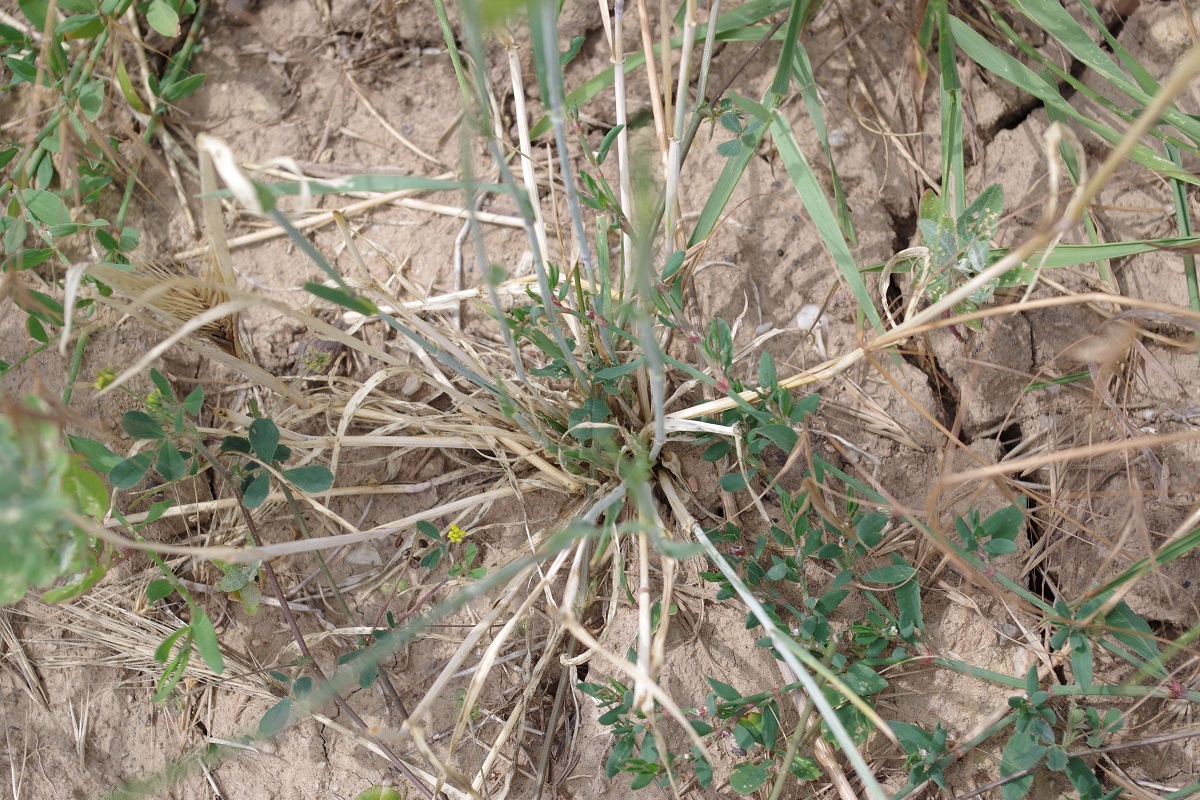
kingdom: Plantae
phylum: Tracheophyta
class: Liliopsida
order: Poales
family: Poaceae
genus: Hordeum
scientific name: Hordeum murinum
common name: Wall barley
